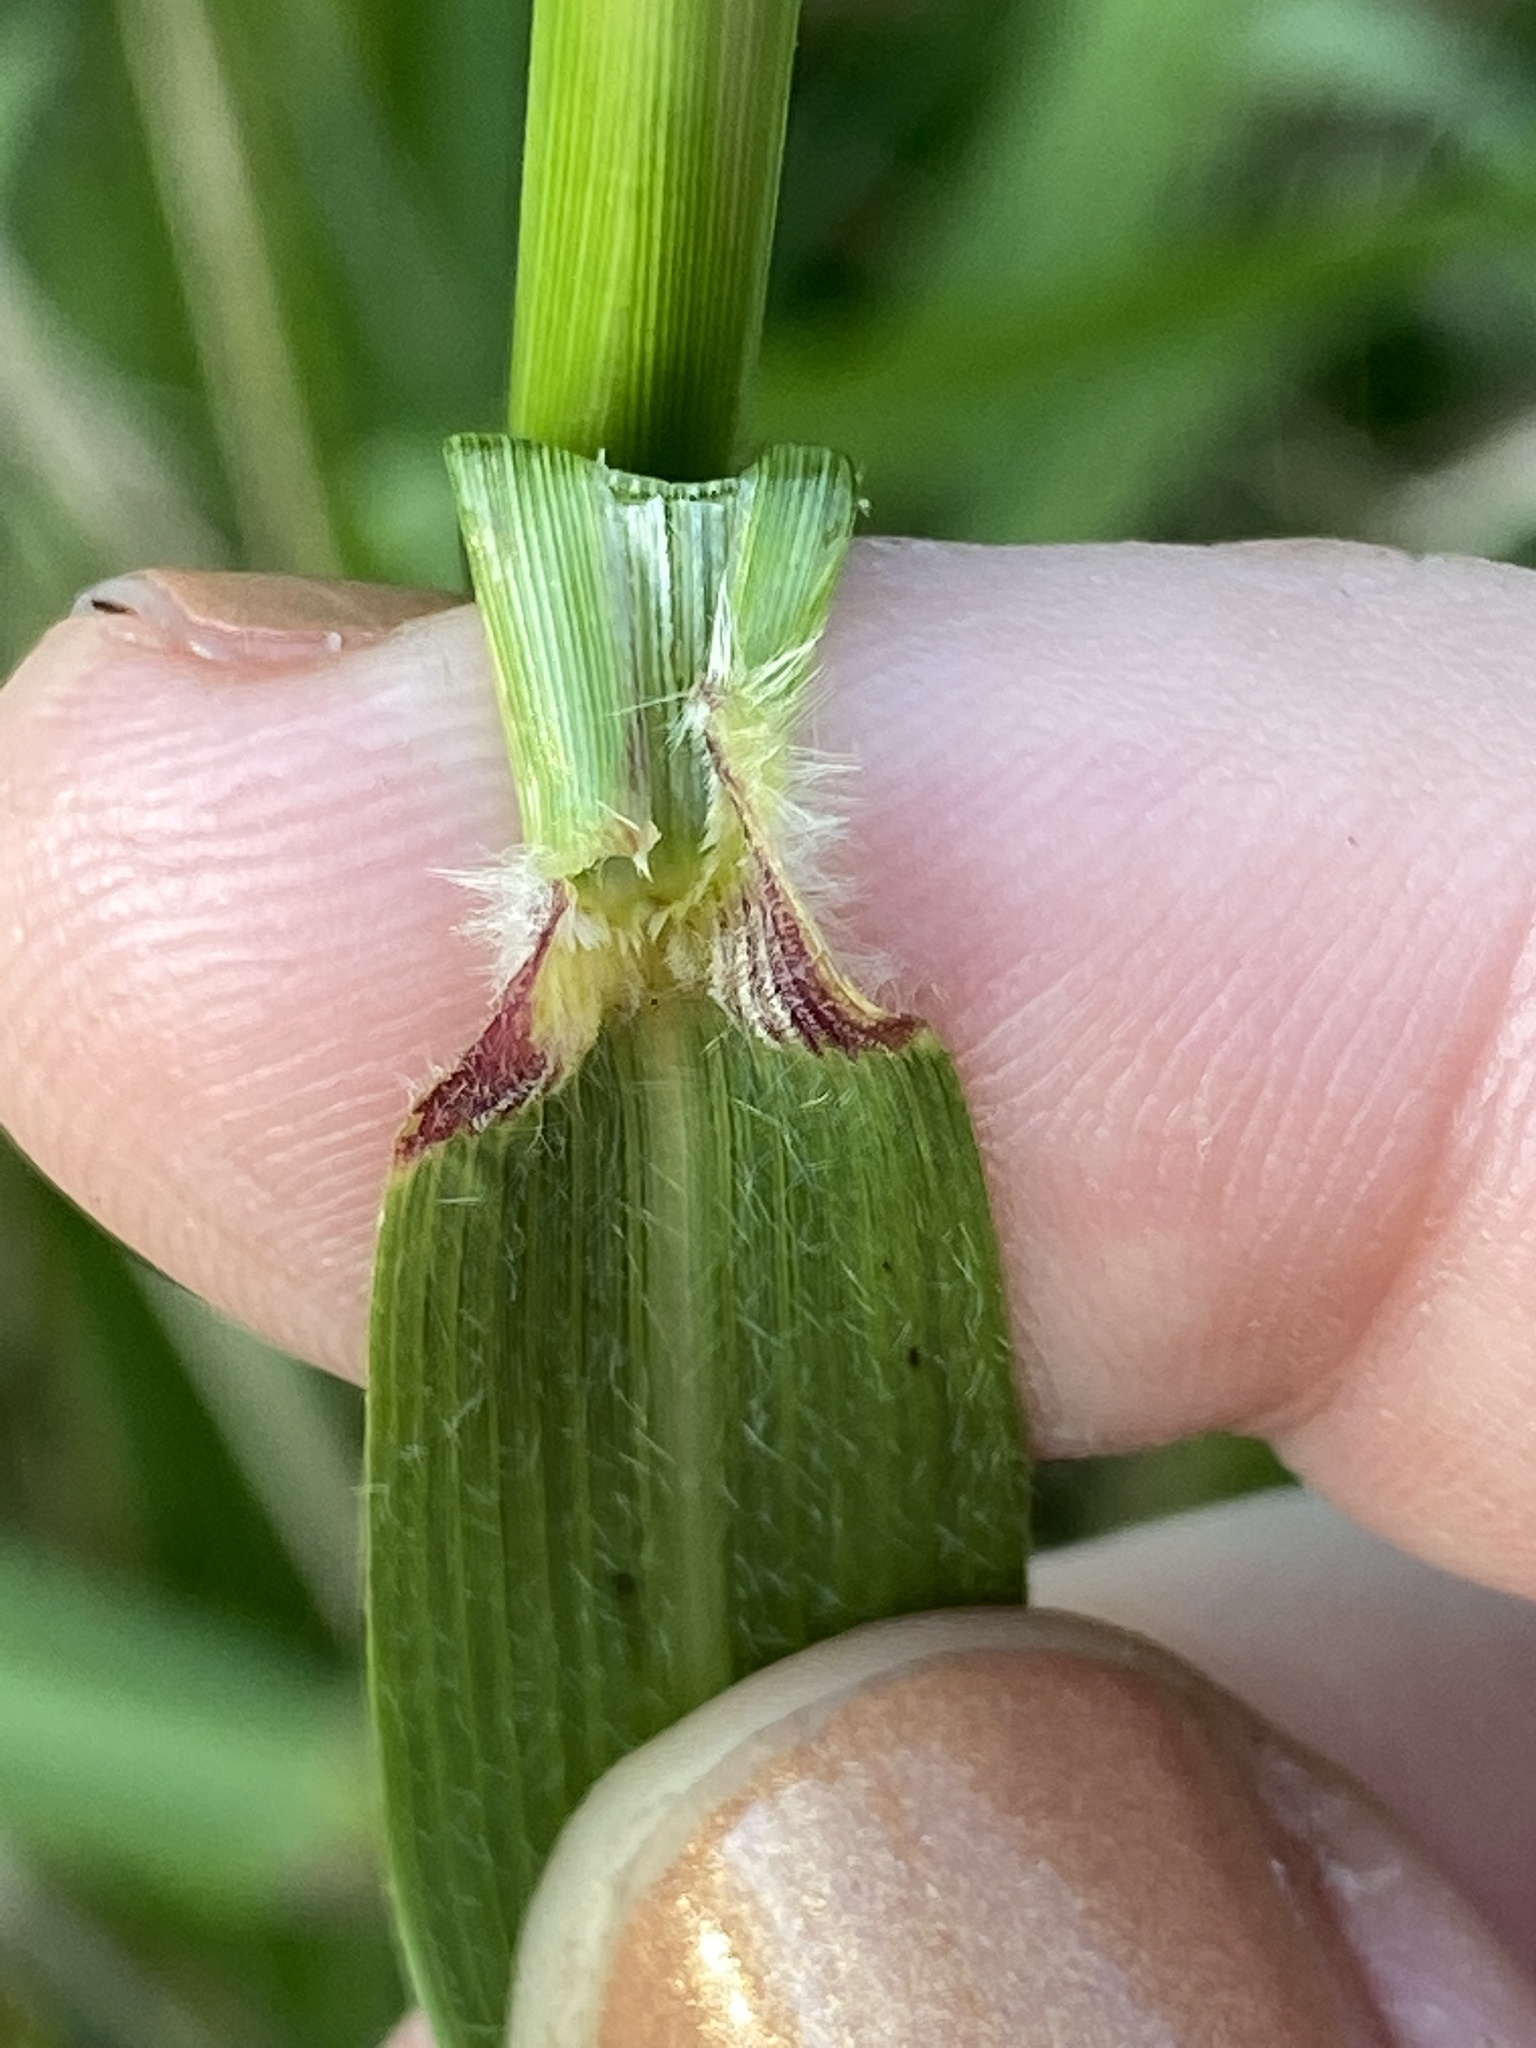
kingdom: Plantae
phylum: Tracheophyta
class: Liliopsida
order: Poales
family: Poaceae
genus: Tridens
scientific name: Tridens flavus
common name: Purpletop
